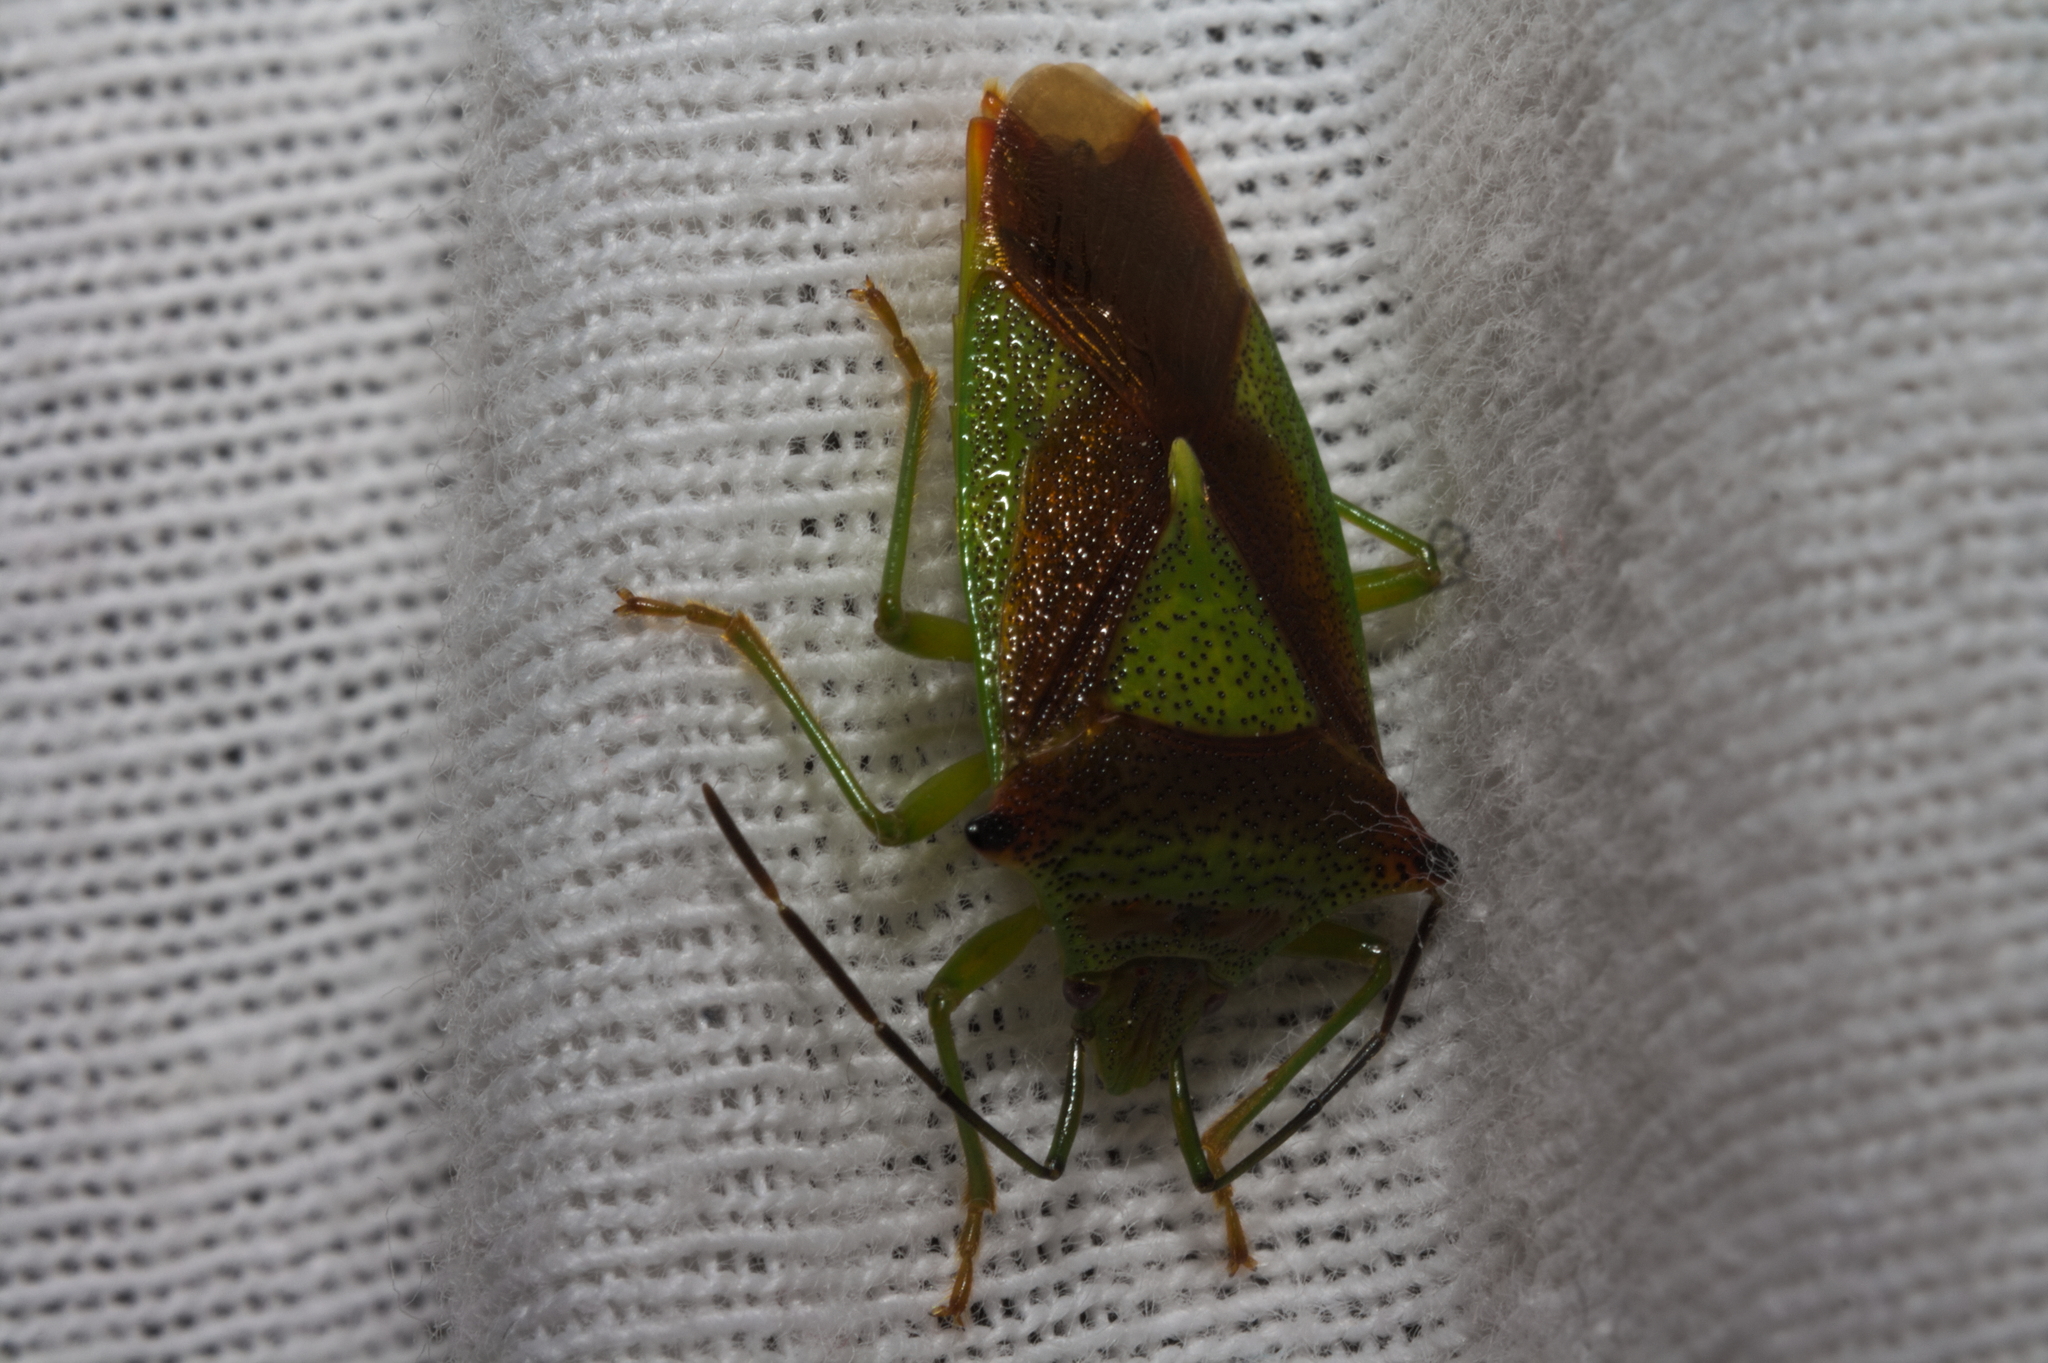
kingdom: Animalia
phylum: Arthropoda
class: Insecta
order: Hemiptera
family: Acanthosomatidae
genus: Acanthosoma
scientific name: Acanthosoma haemorrhoidale
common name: Hawthorn shieldbug
